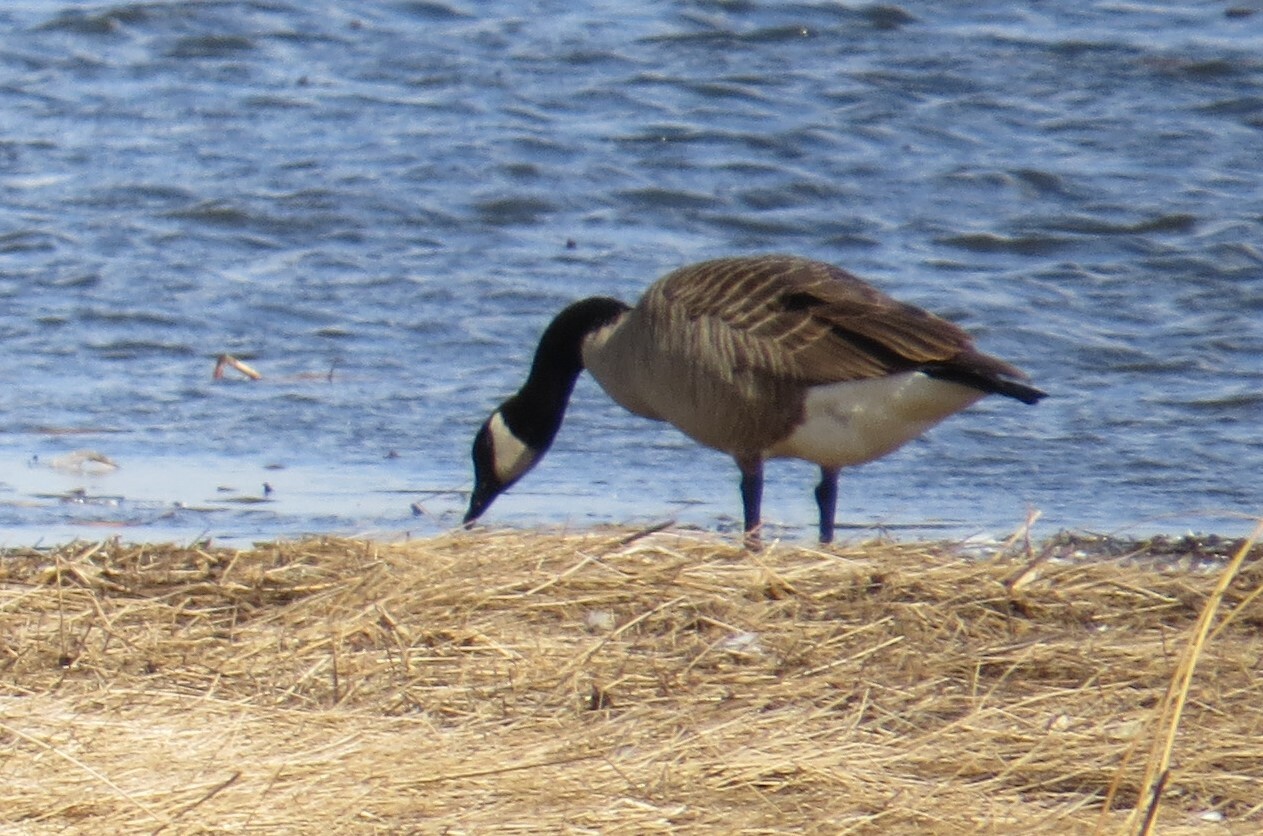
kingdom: Animalia
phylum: Chordata
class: Aves
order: Anseriformes
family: Anatidae
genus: Branta
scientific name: Branta canadensis
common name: Canada goose
